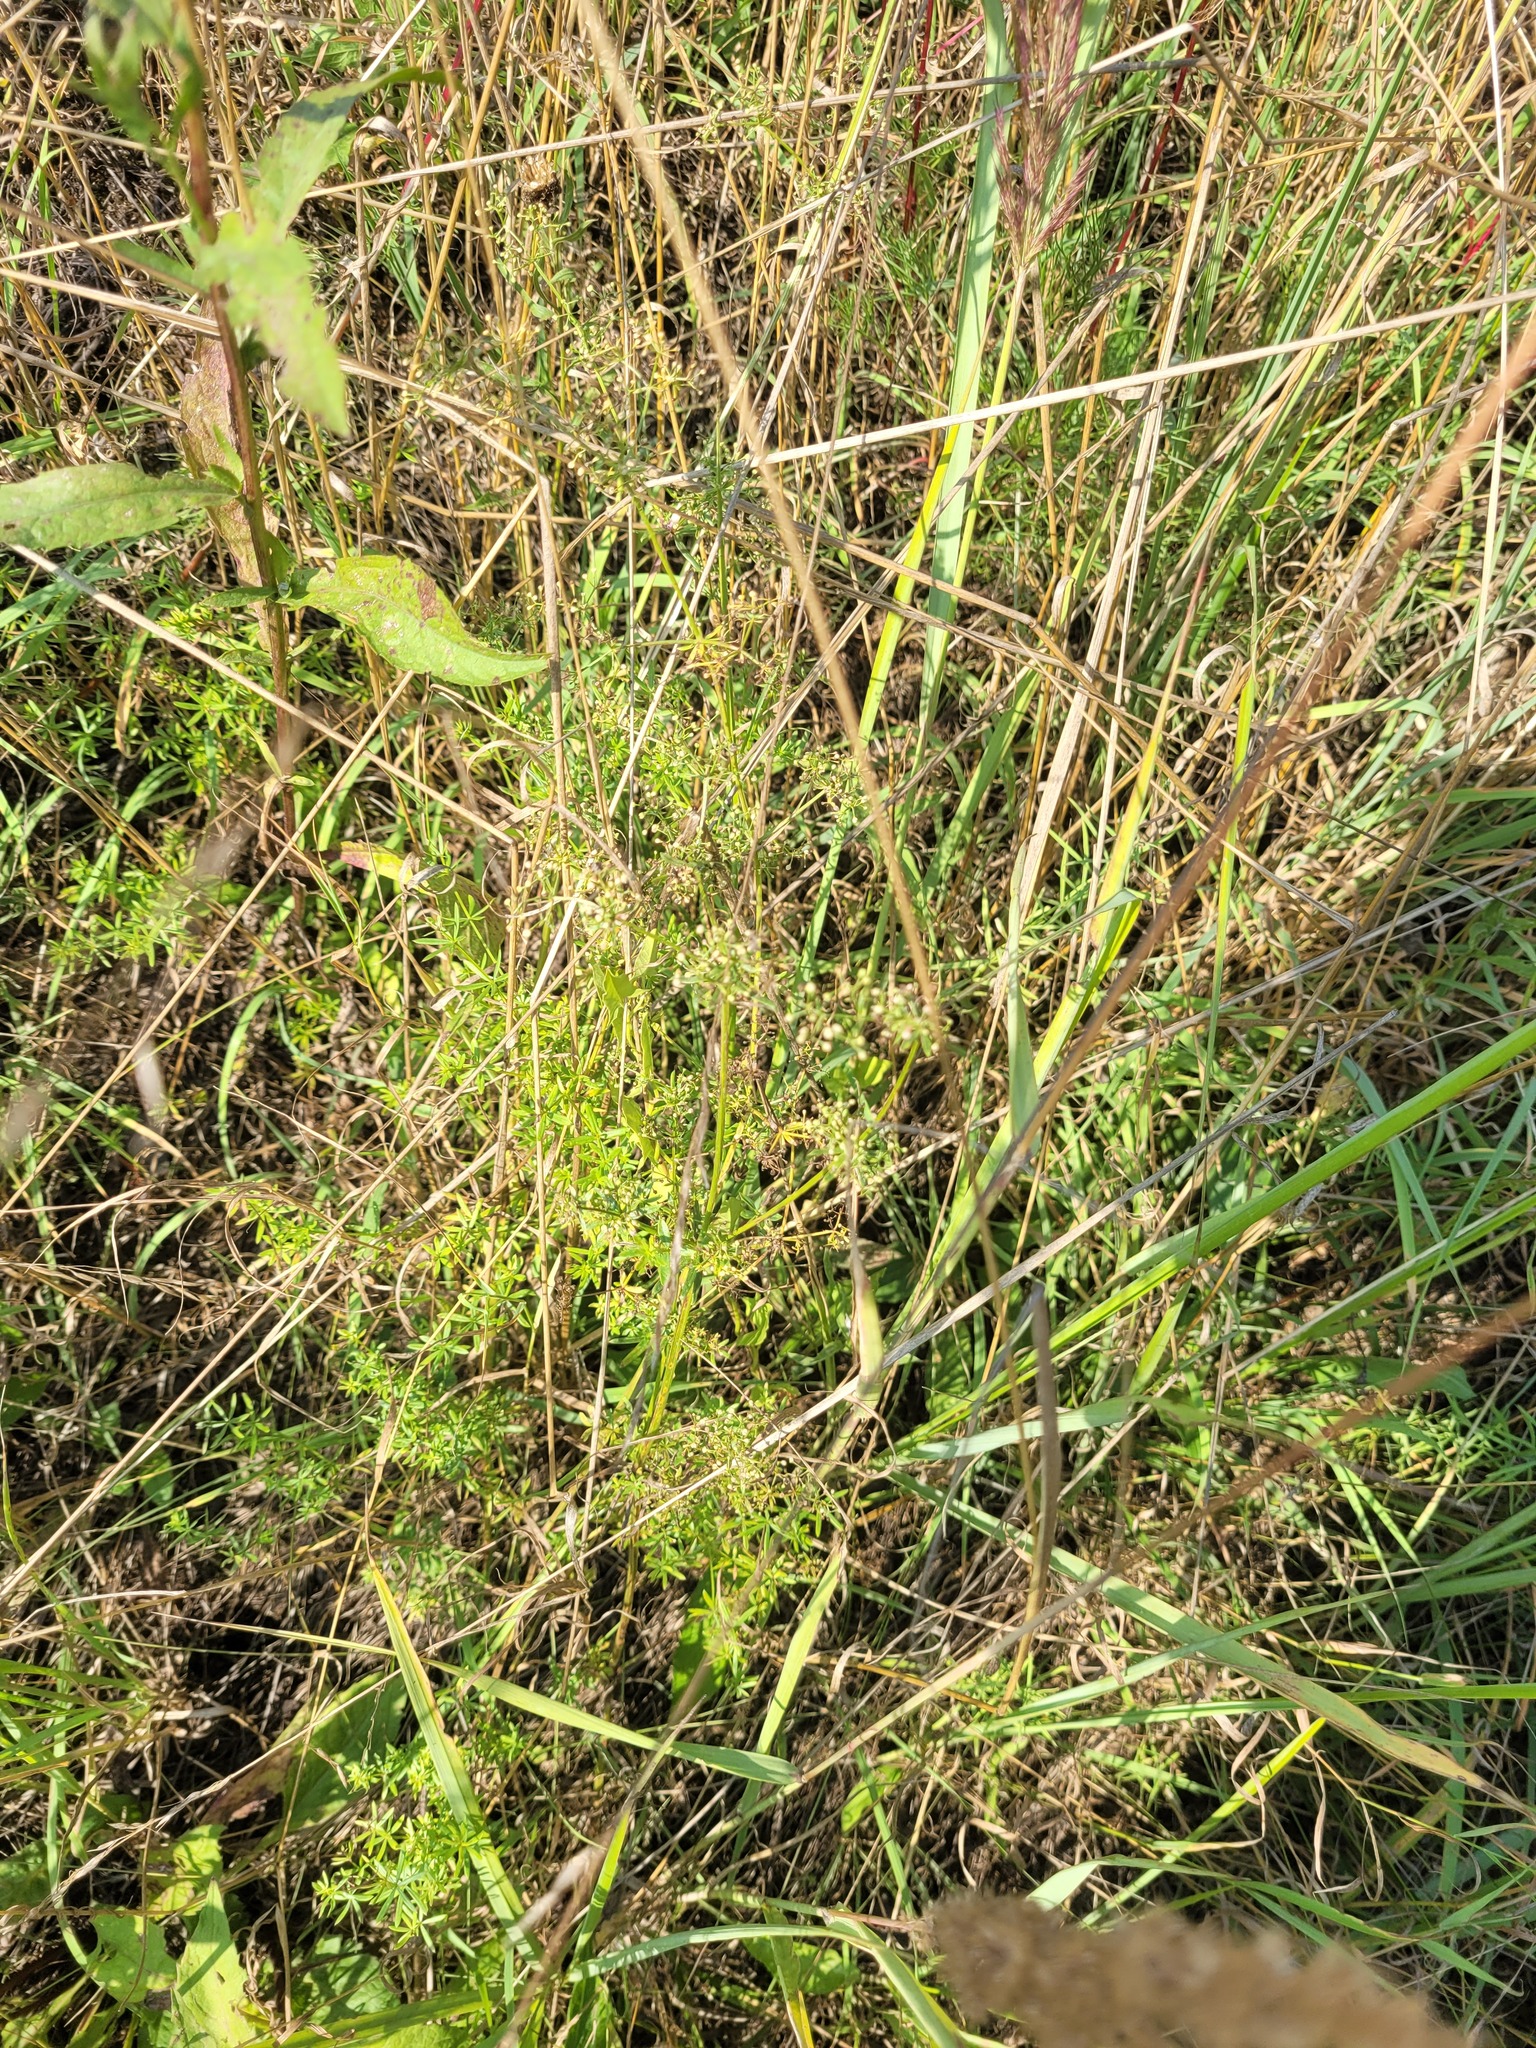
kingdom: Plantae
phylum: Tracheophyta
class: Magnoliopsida
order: Gentianales
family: Rubiaceae
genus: Galium
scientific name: Galium mollugo
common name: Hedge bedstraw
